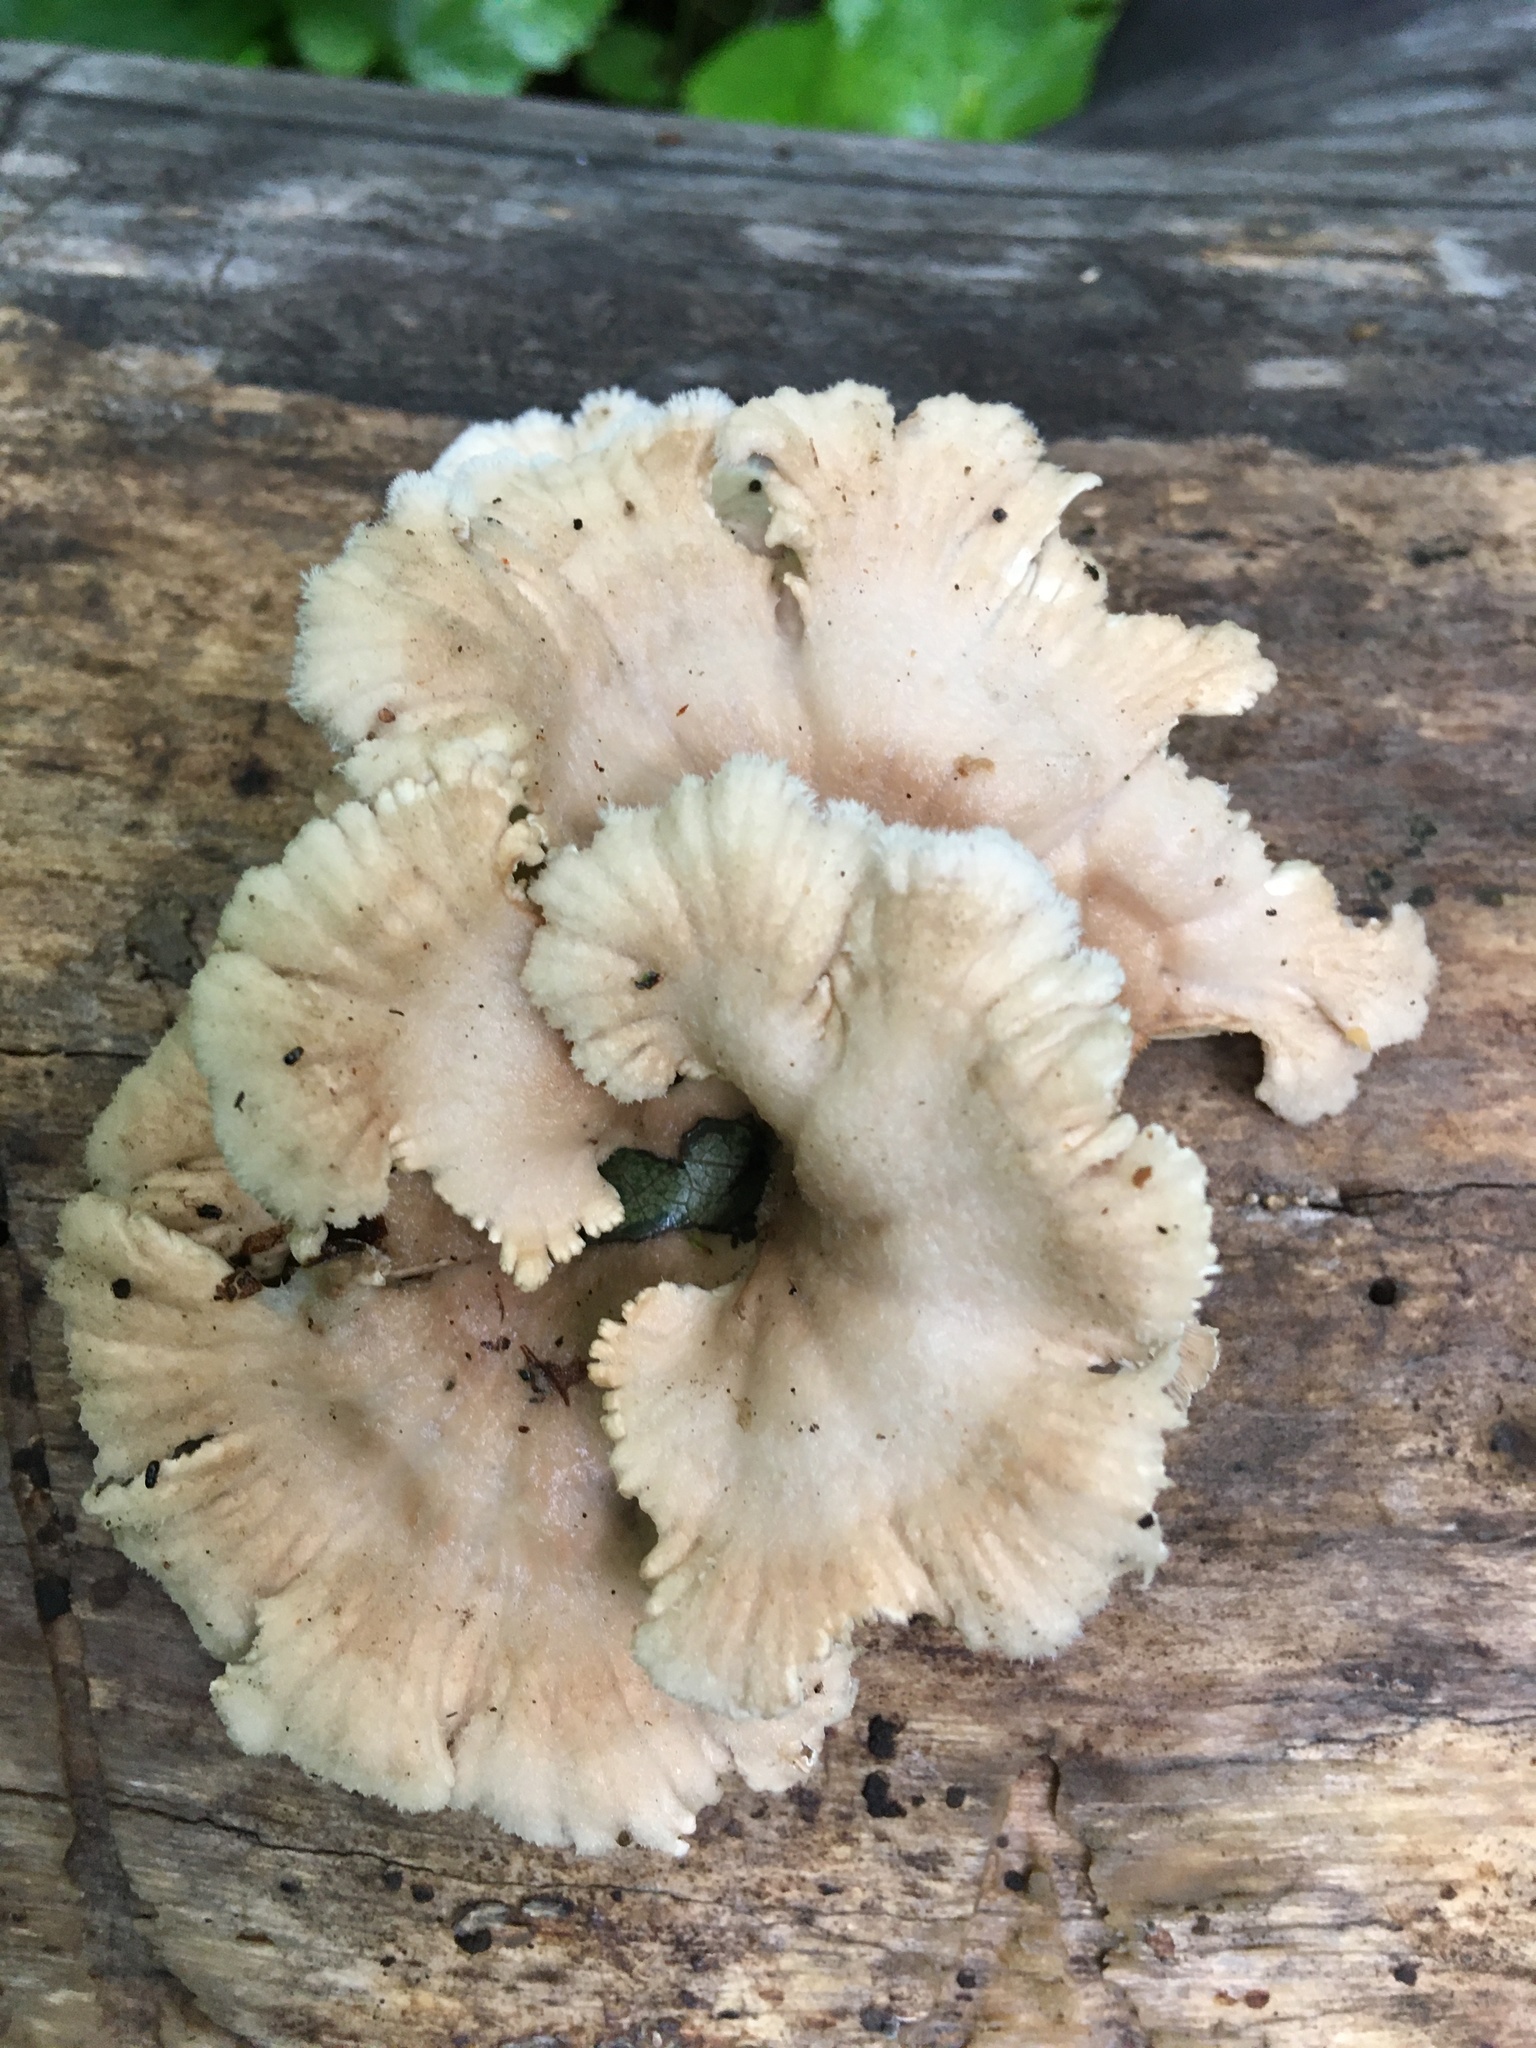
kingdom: Fungi
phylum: Basidiomycota
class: Agaricomycetes
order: Agaricales
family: Schizophyllaceae
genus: Schizophyllum
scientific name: Schizophyllum commune
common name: Common porecrust
